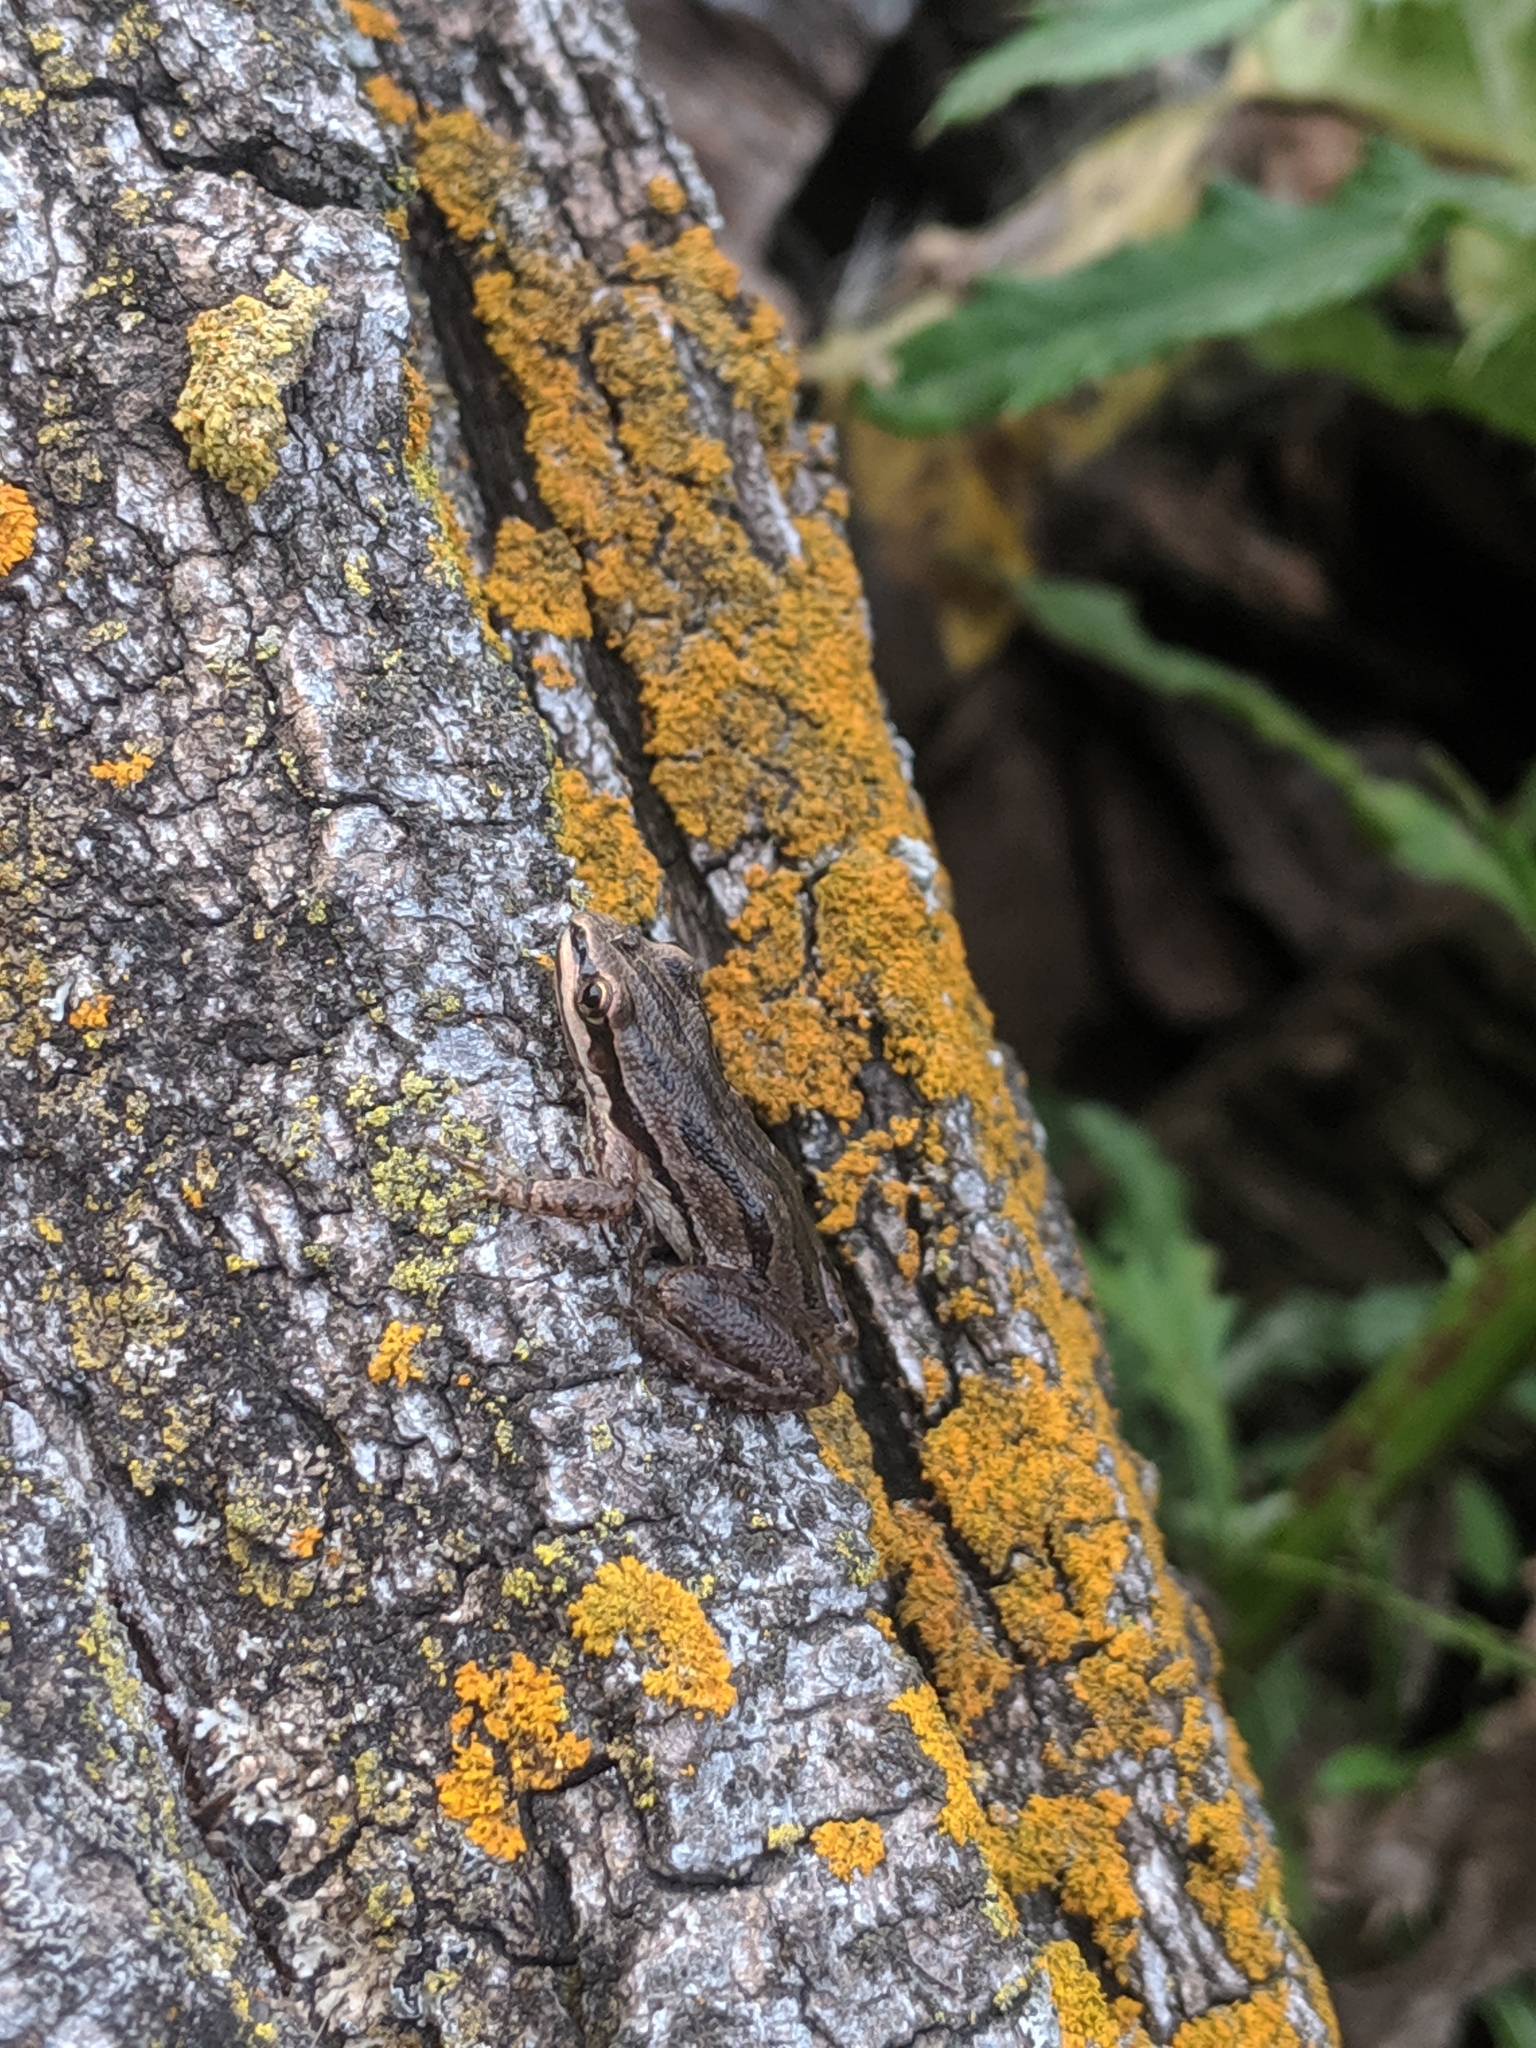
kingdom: Animalia
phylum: Chordata
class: Amphibia
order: Anura
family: Hylidae
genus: Pseudacris
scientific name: Pseudacris maculata
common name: Boreal chorus frog
